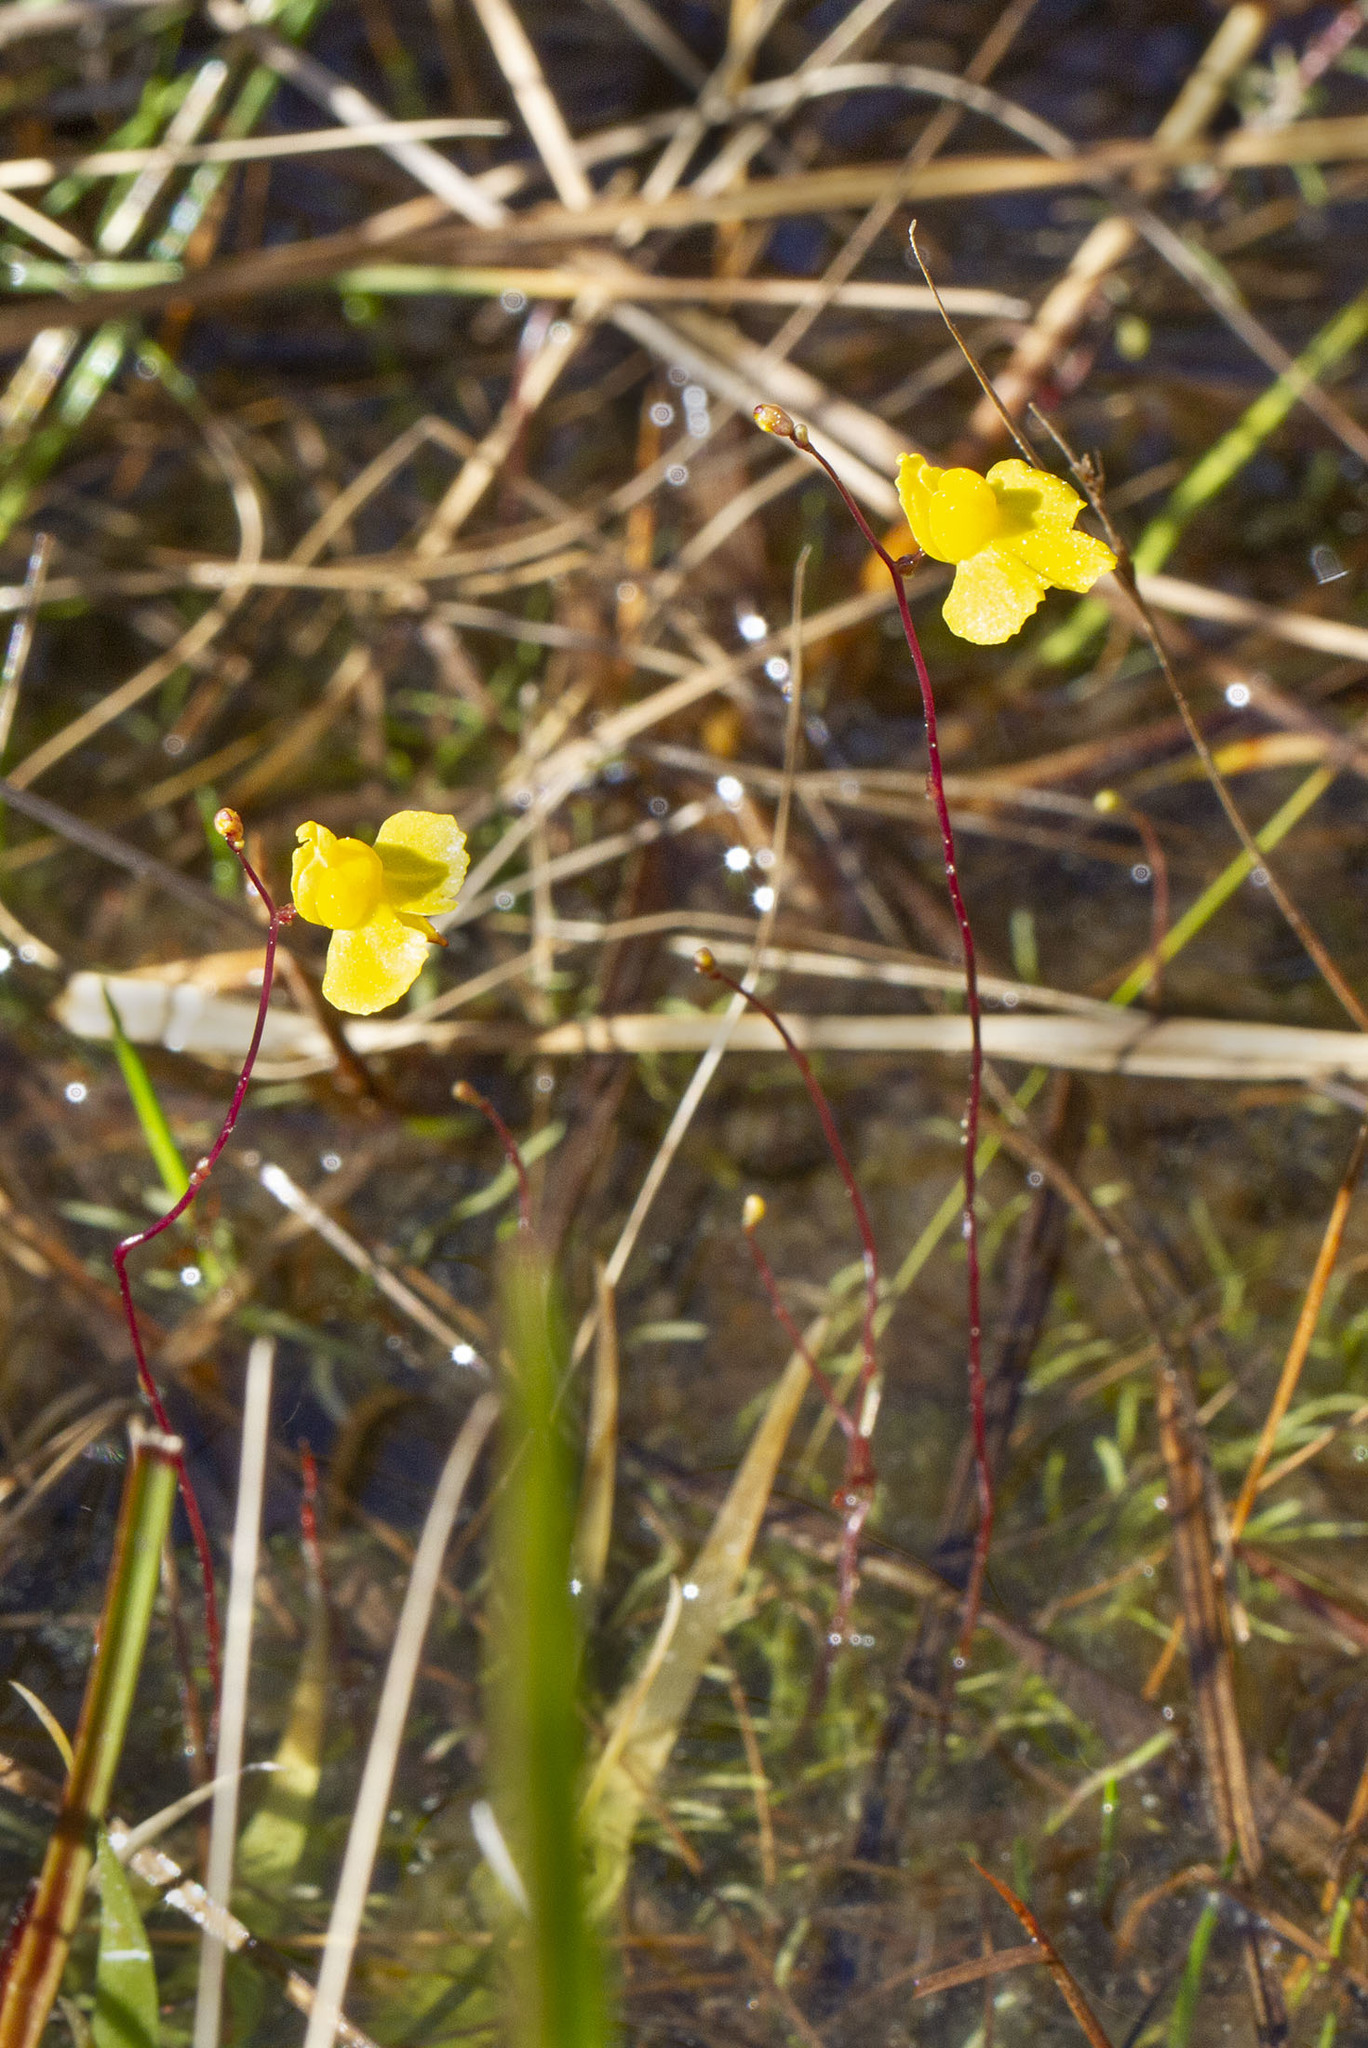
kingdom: Plantae
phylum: Tracheophyta
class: Magnoliopsida
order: Lamiales
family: Lentibulariaceae
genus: Utricularia
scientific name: Utricularia subulata
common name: Tiny bladderwort
